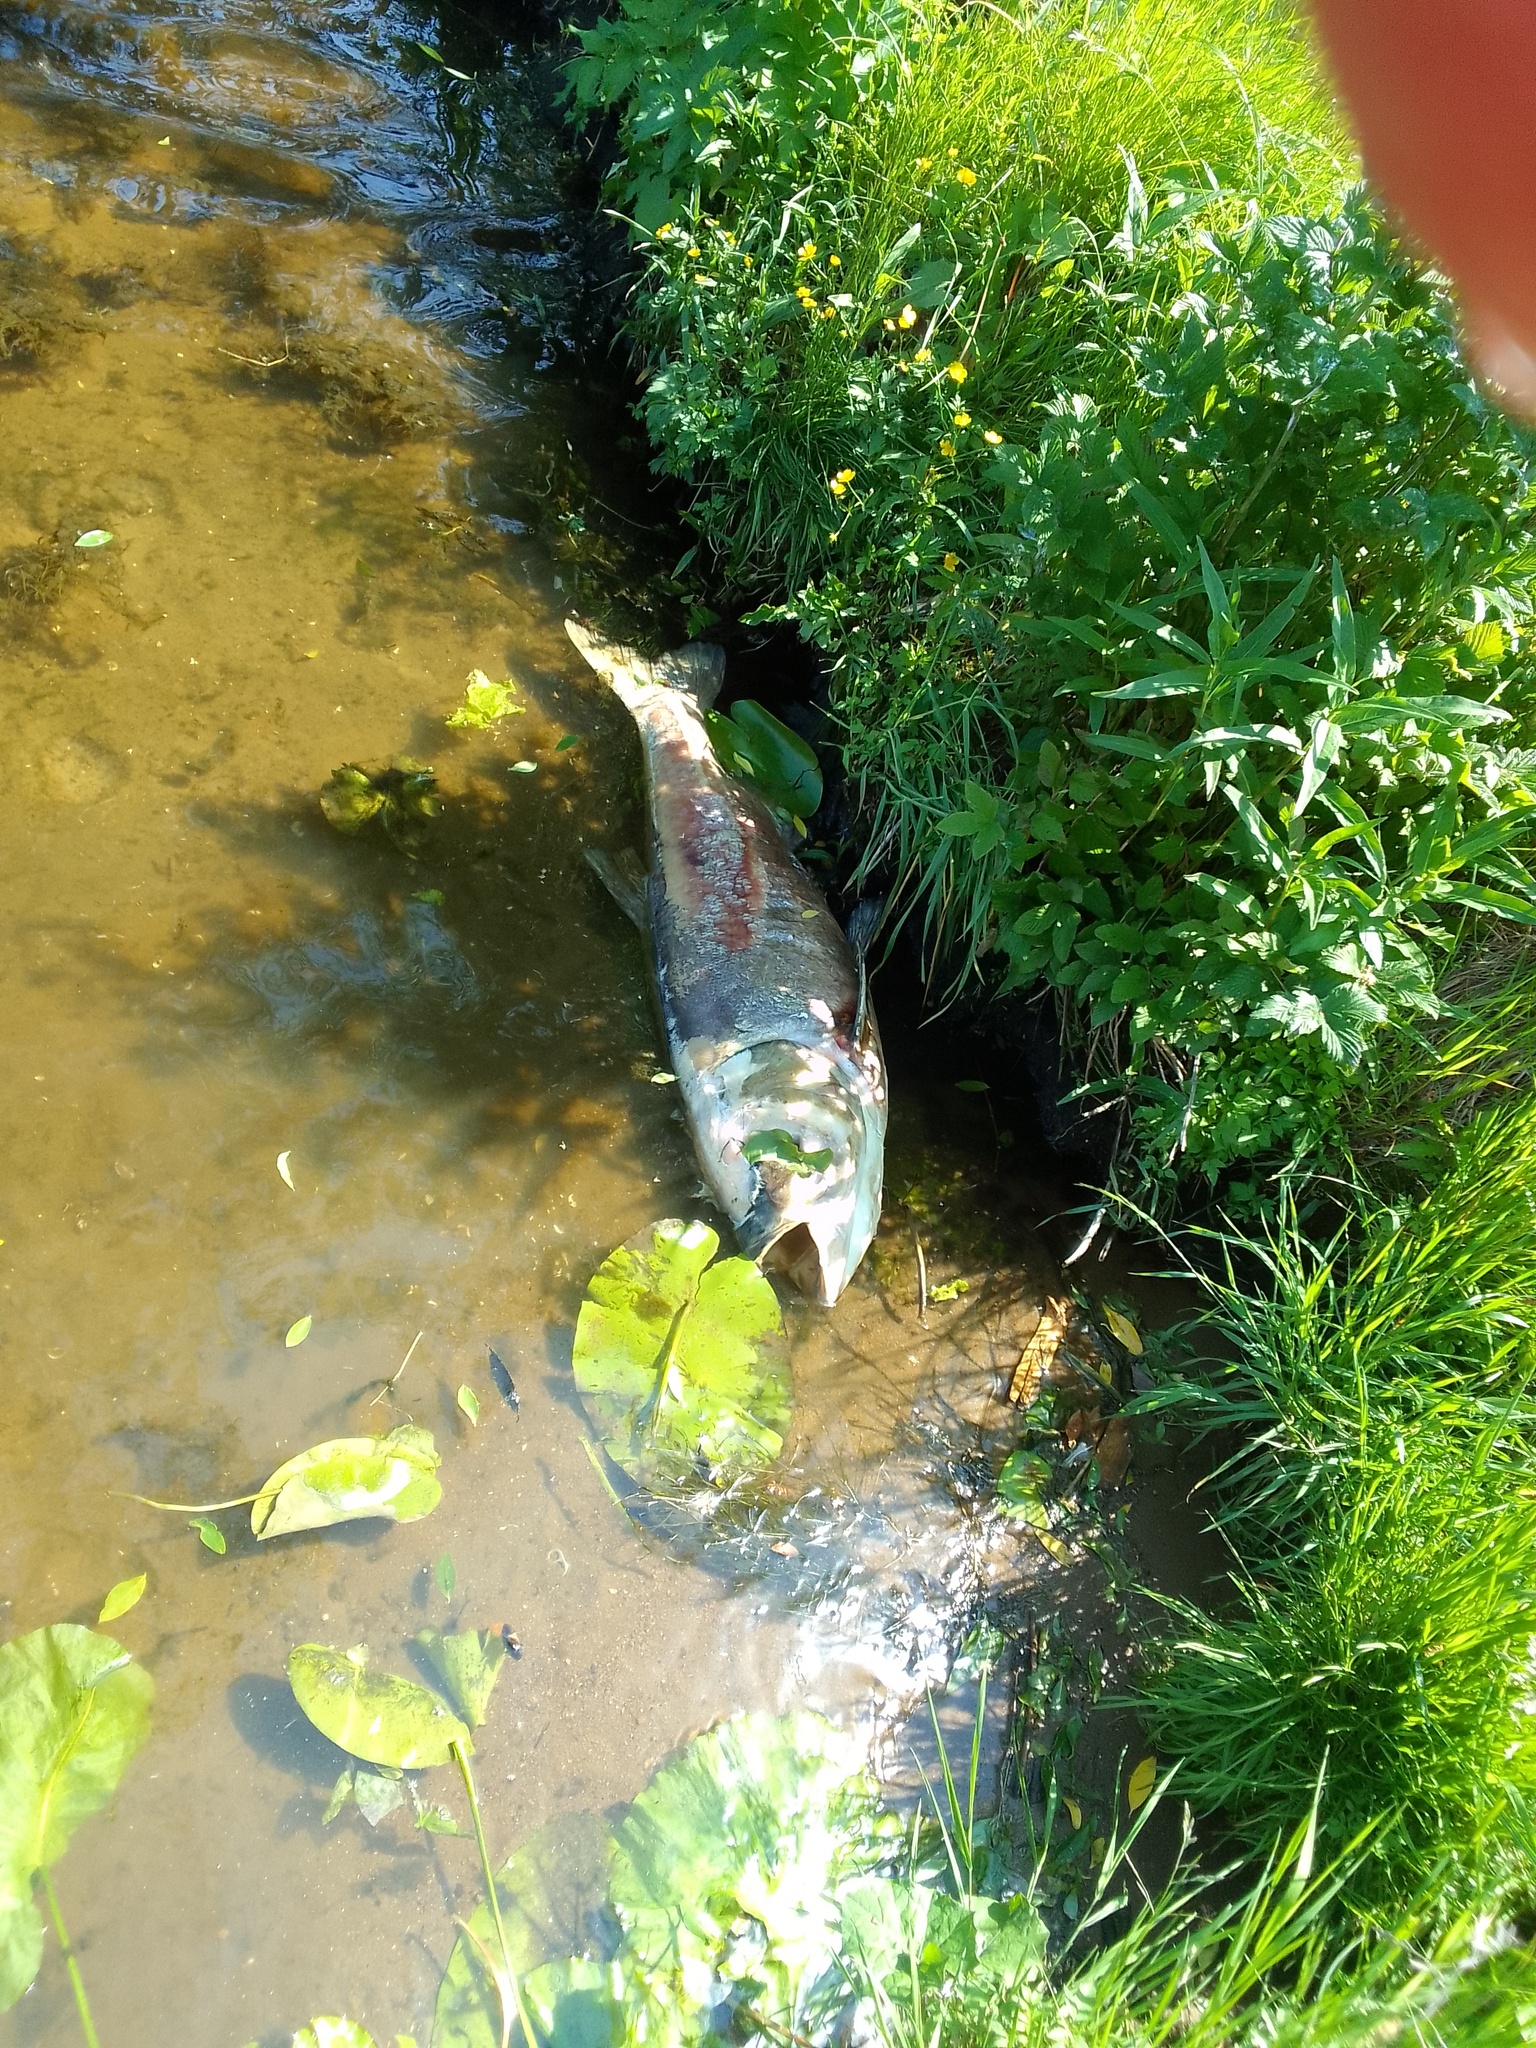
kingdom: Animalia
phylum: Chordata
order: Cypriniformes
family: Cyprinidae
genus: Hypophthalmichthys
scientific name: Hypophthalmichthys molitrix
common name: Silver carp
